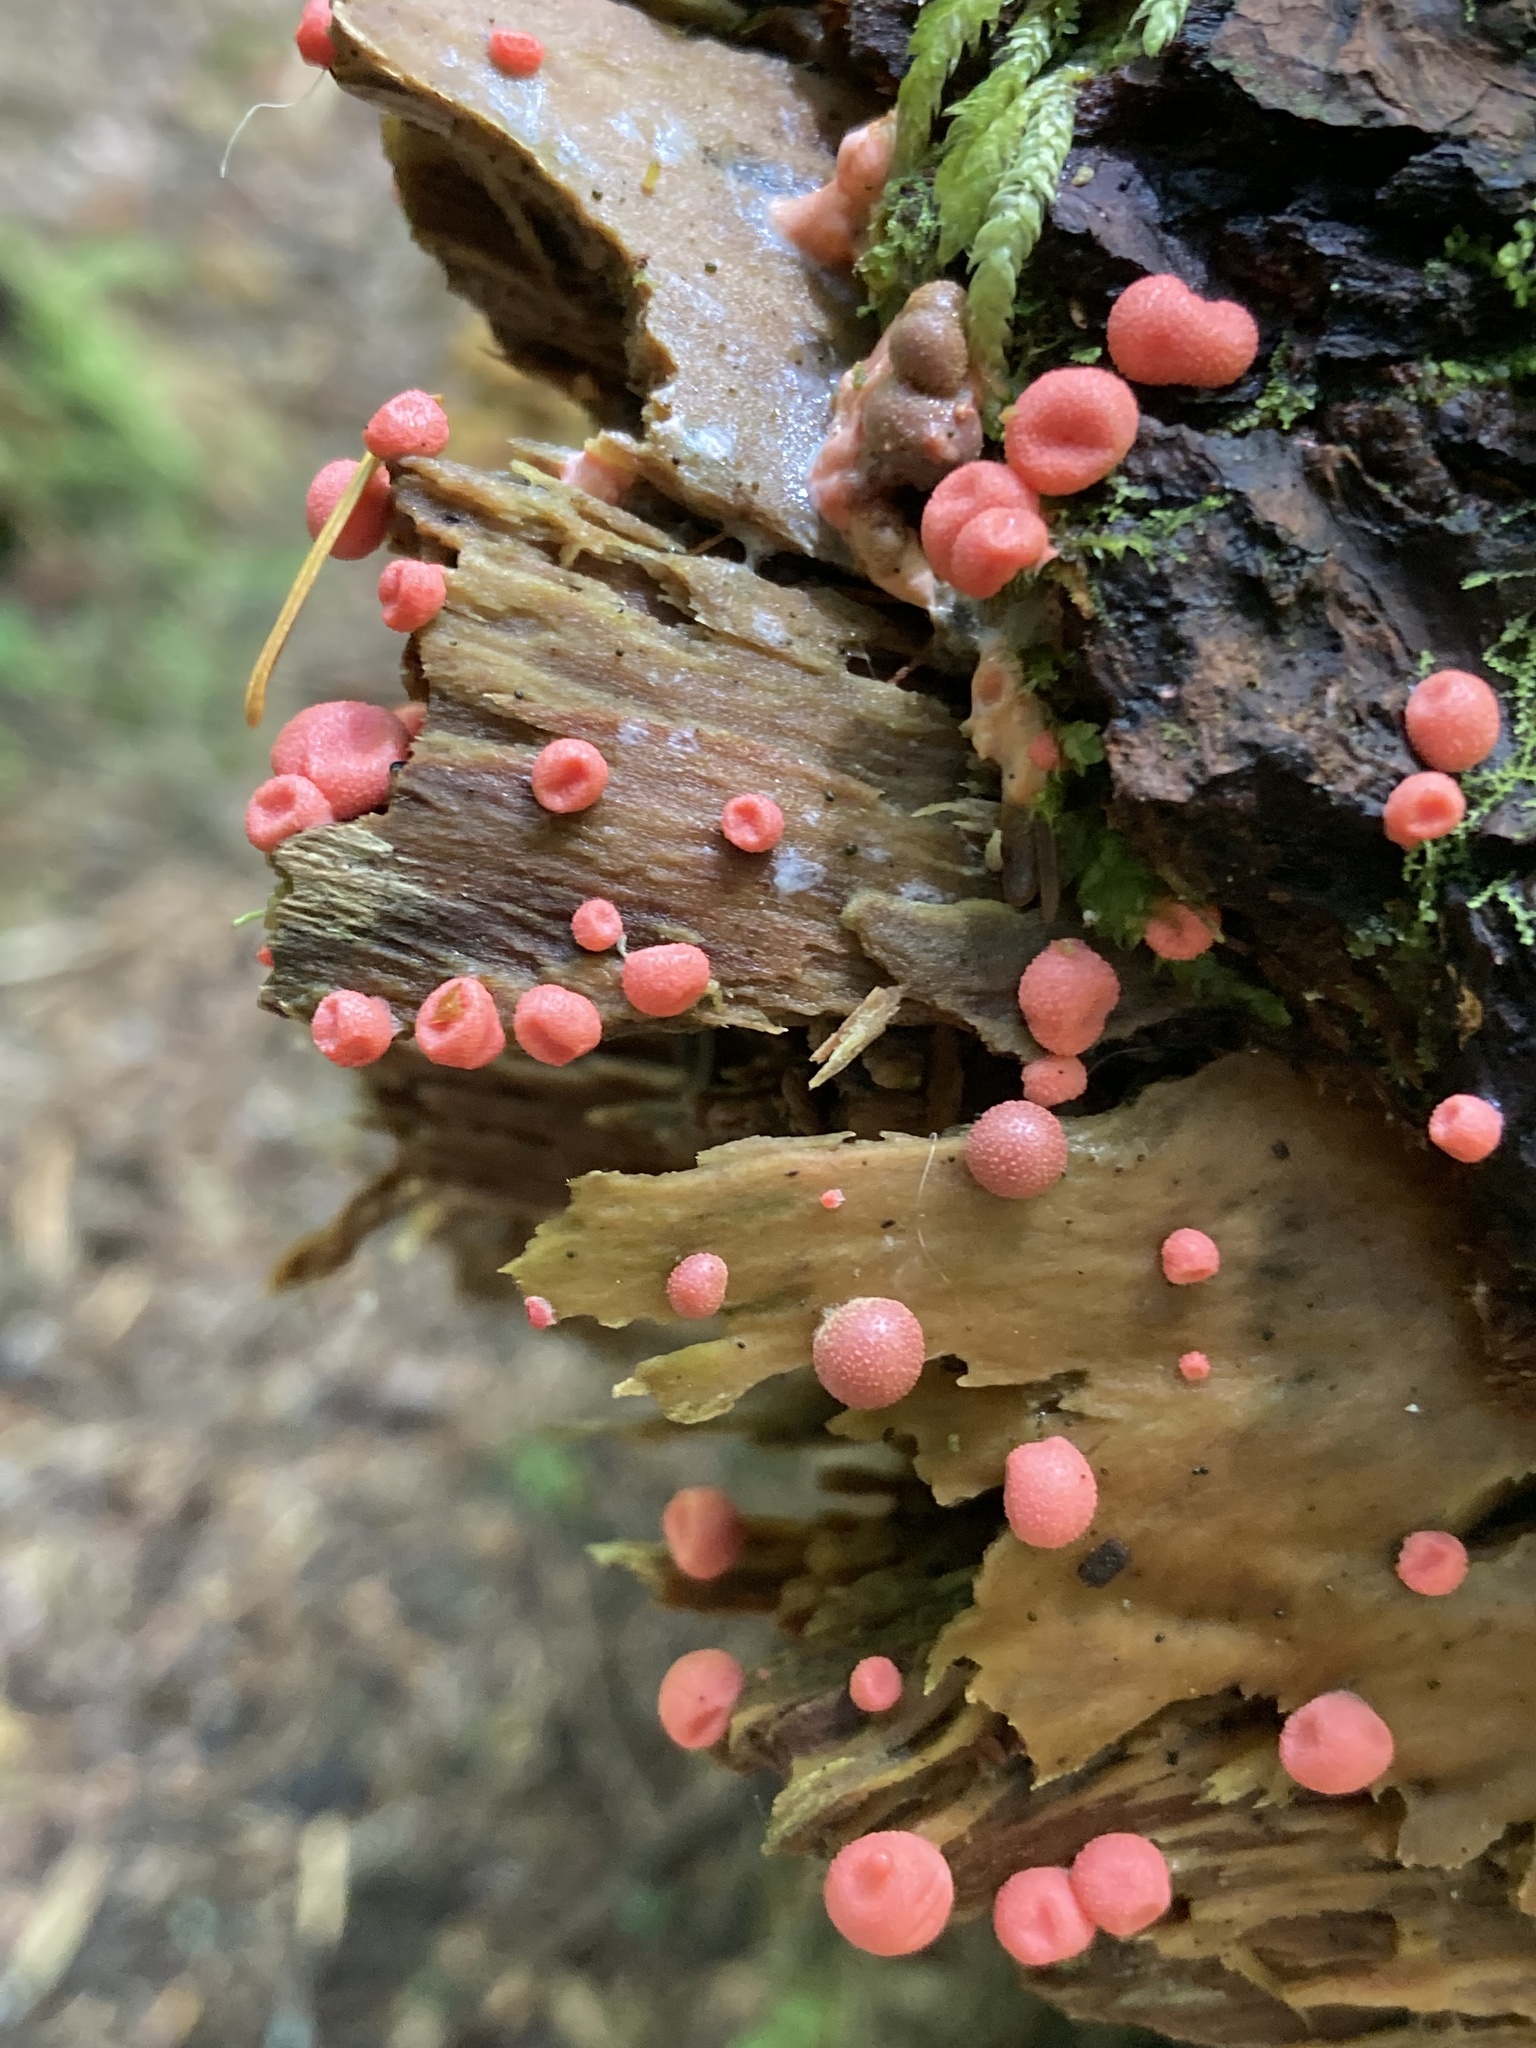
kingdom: Protozoa
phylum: Mycetozoa
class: Myxomycetes
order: Cribrariales
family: Tubiferaceae
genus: Lycogala
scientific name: Lycogala epidendrum
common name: Wolf's milk
